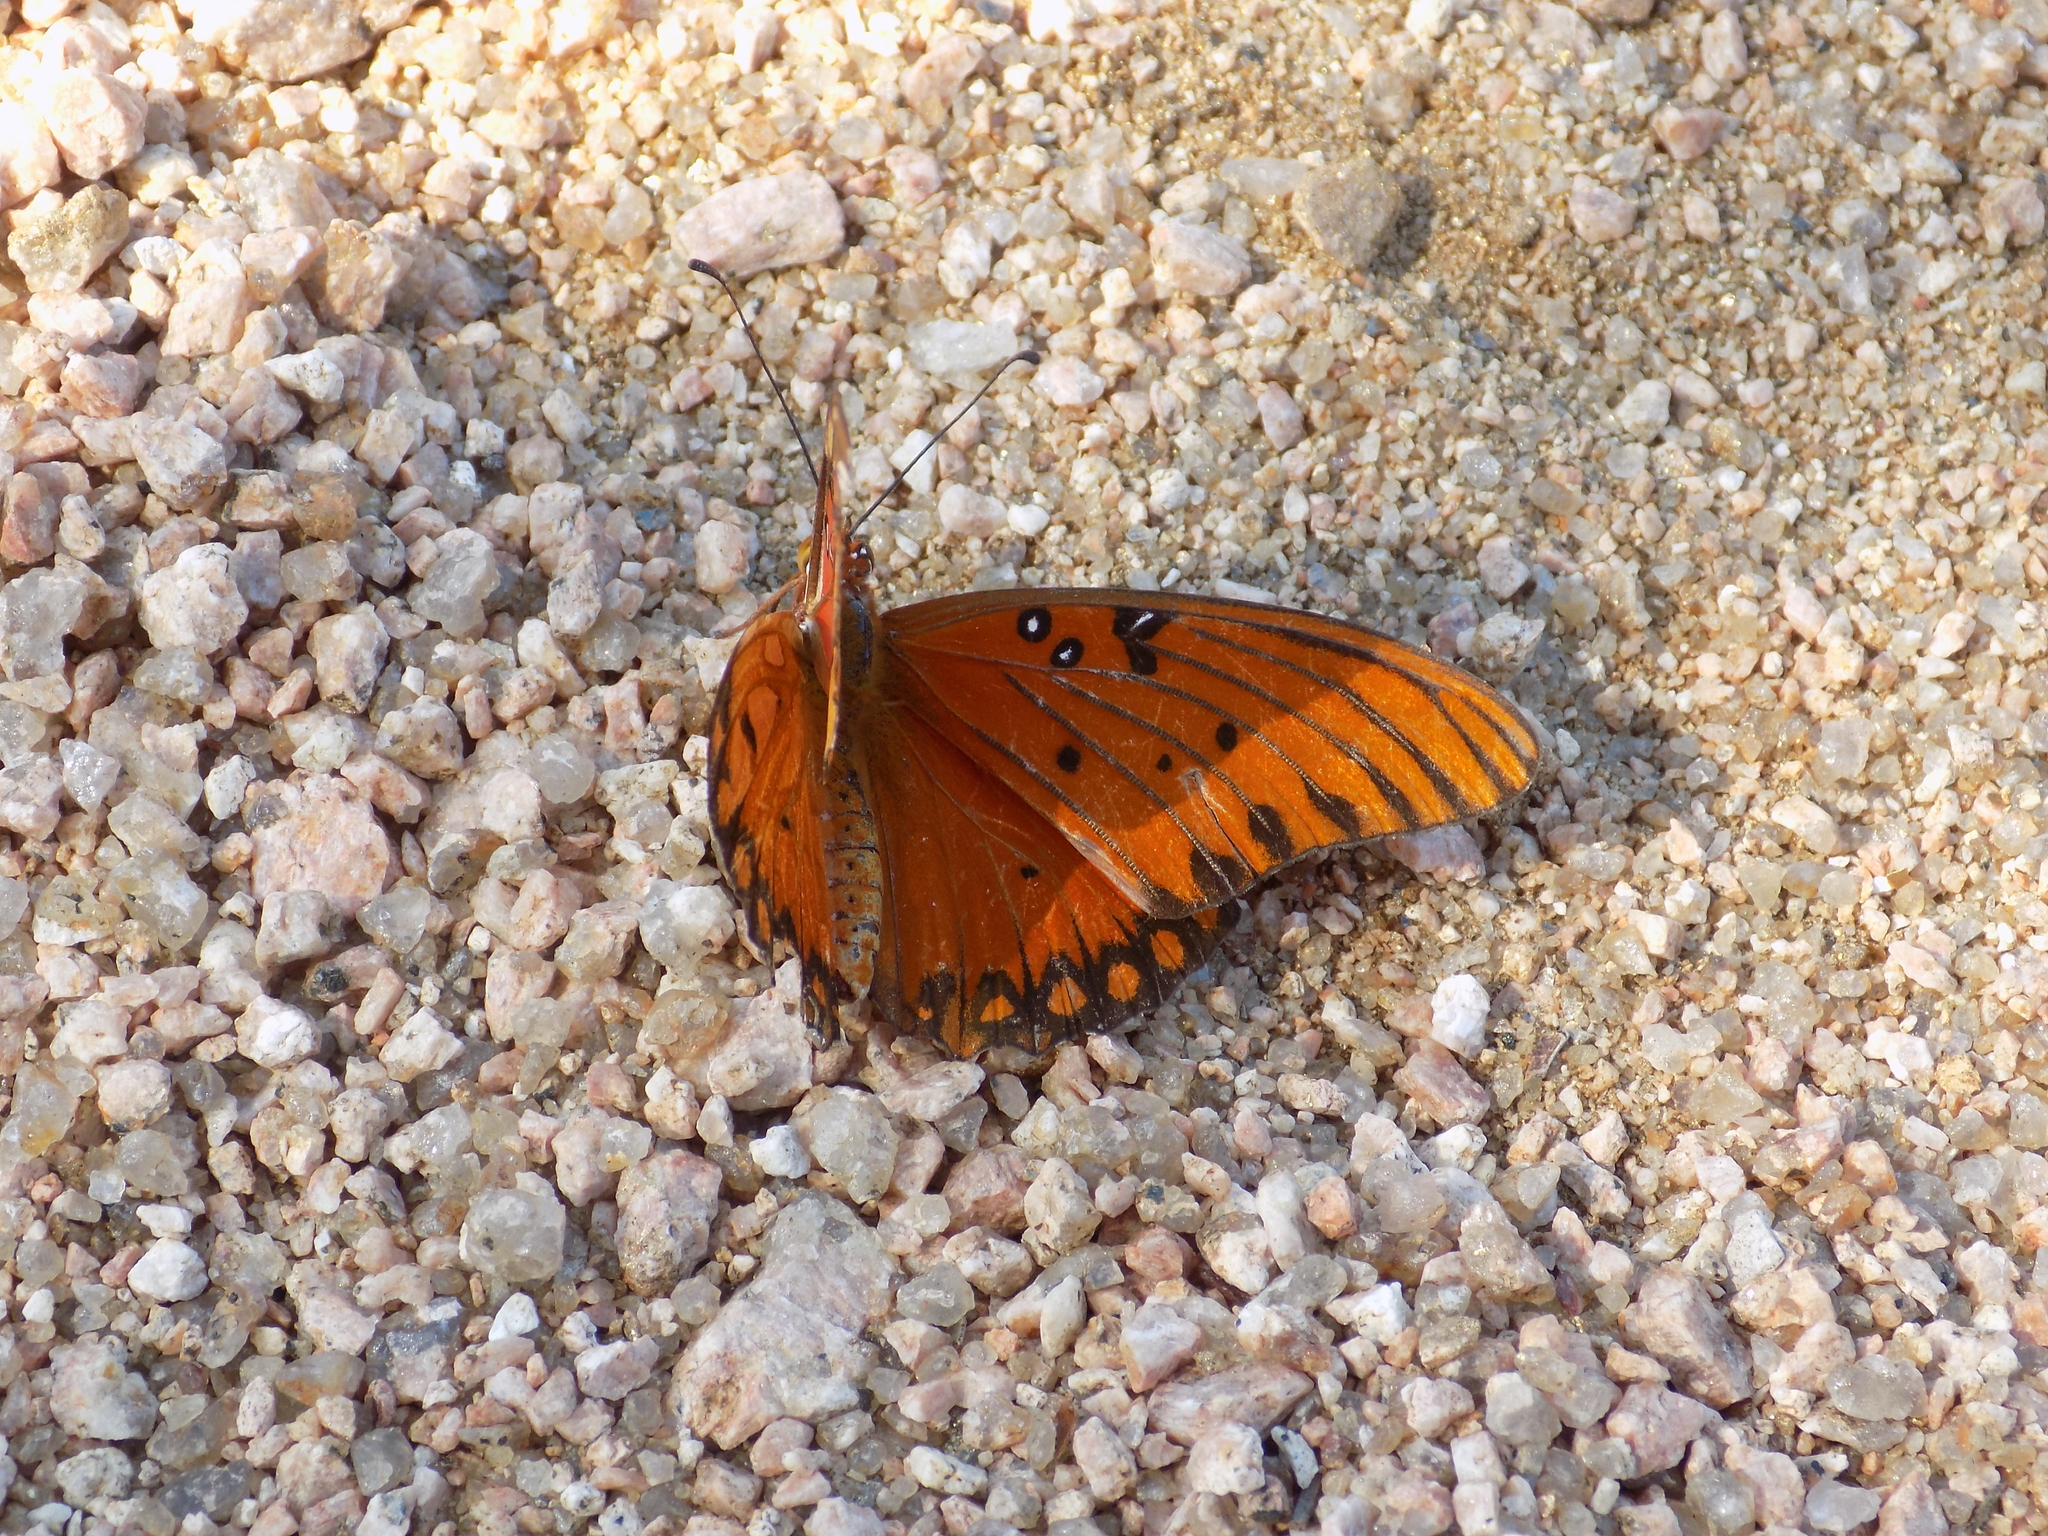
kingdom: Animalia
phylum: Arthropoda
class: Insecta
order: Lepidoptera
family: Nymphalidae
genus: Dione
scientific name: Dione vanillae
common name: Gulf fritillary
